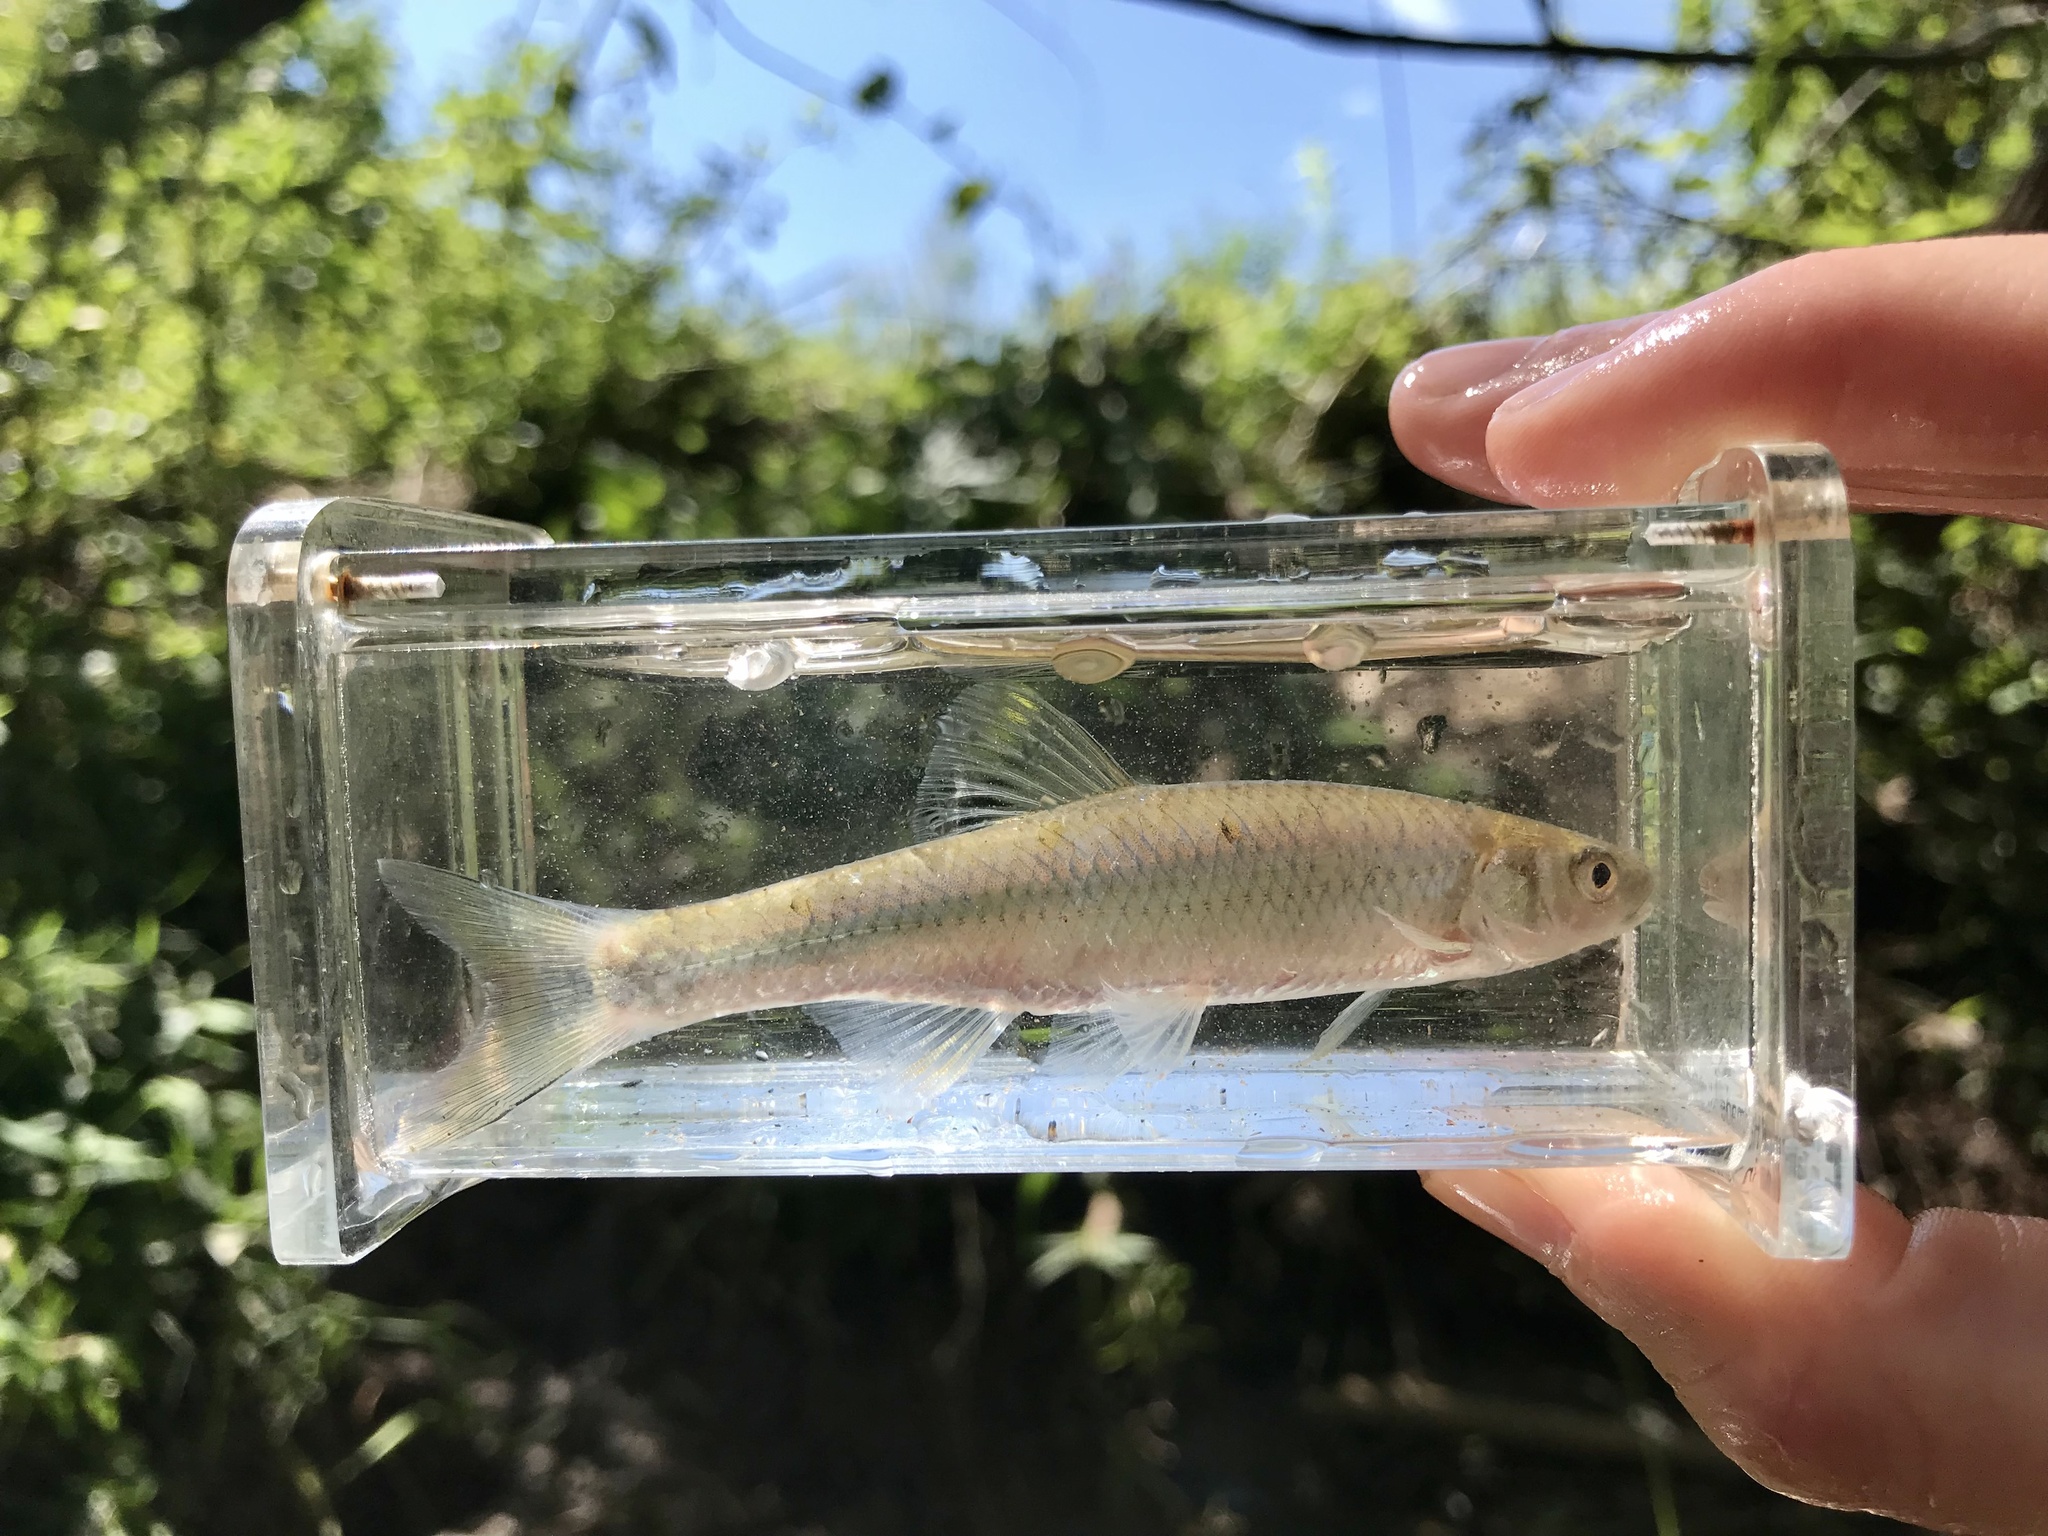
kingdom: Animalia
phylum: Chordata
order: Cypriniformes
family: Cyprinidae
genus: Cyprinella
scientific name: Cyprinella galactura
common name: Whitetail shiner
